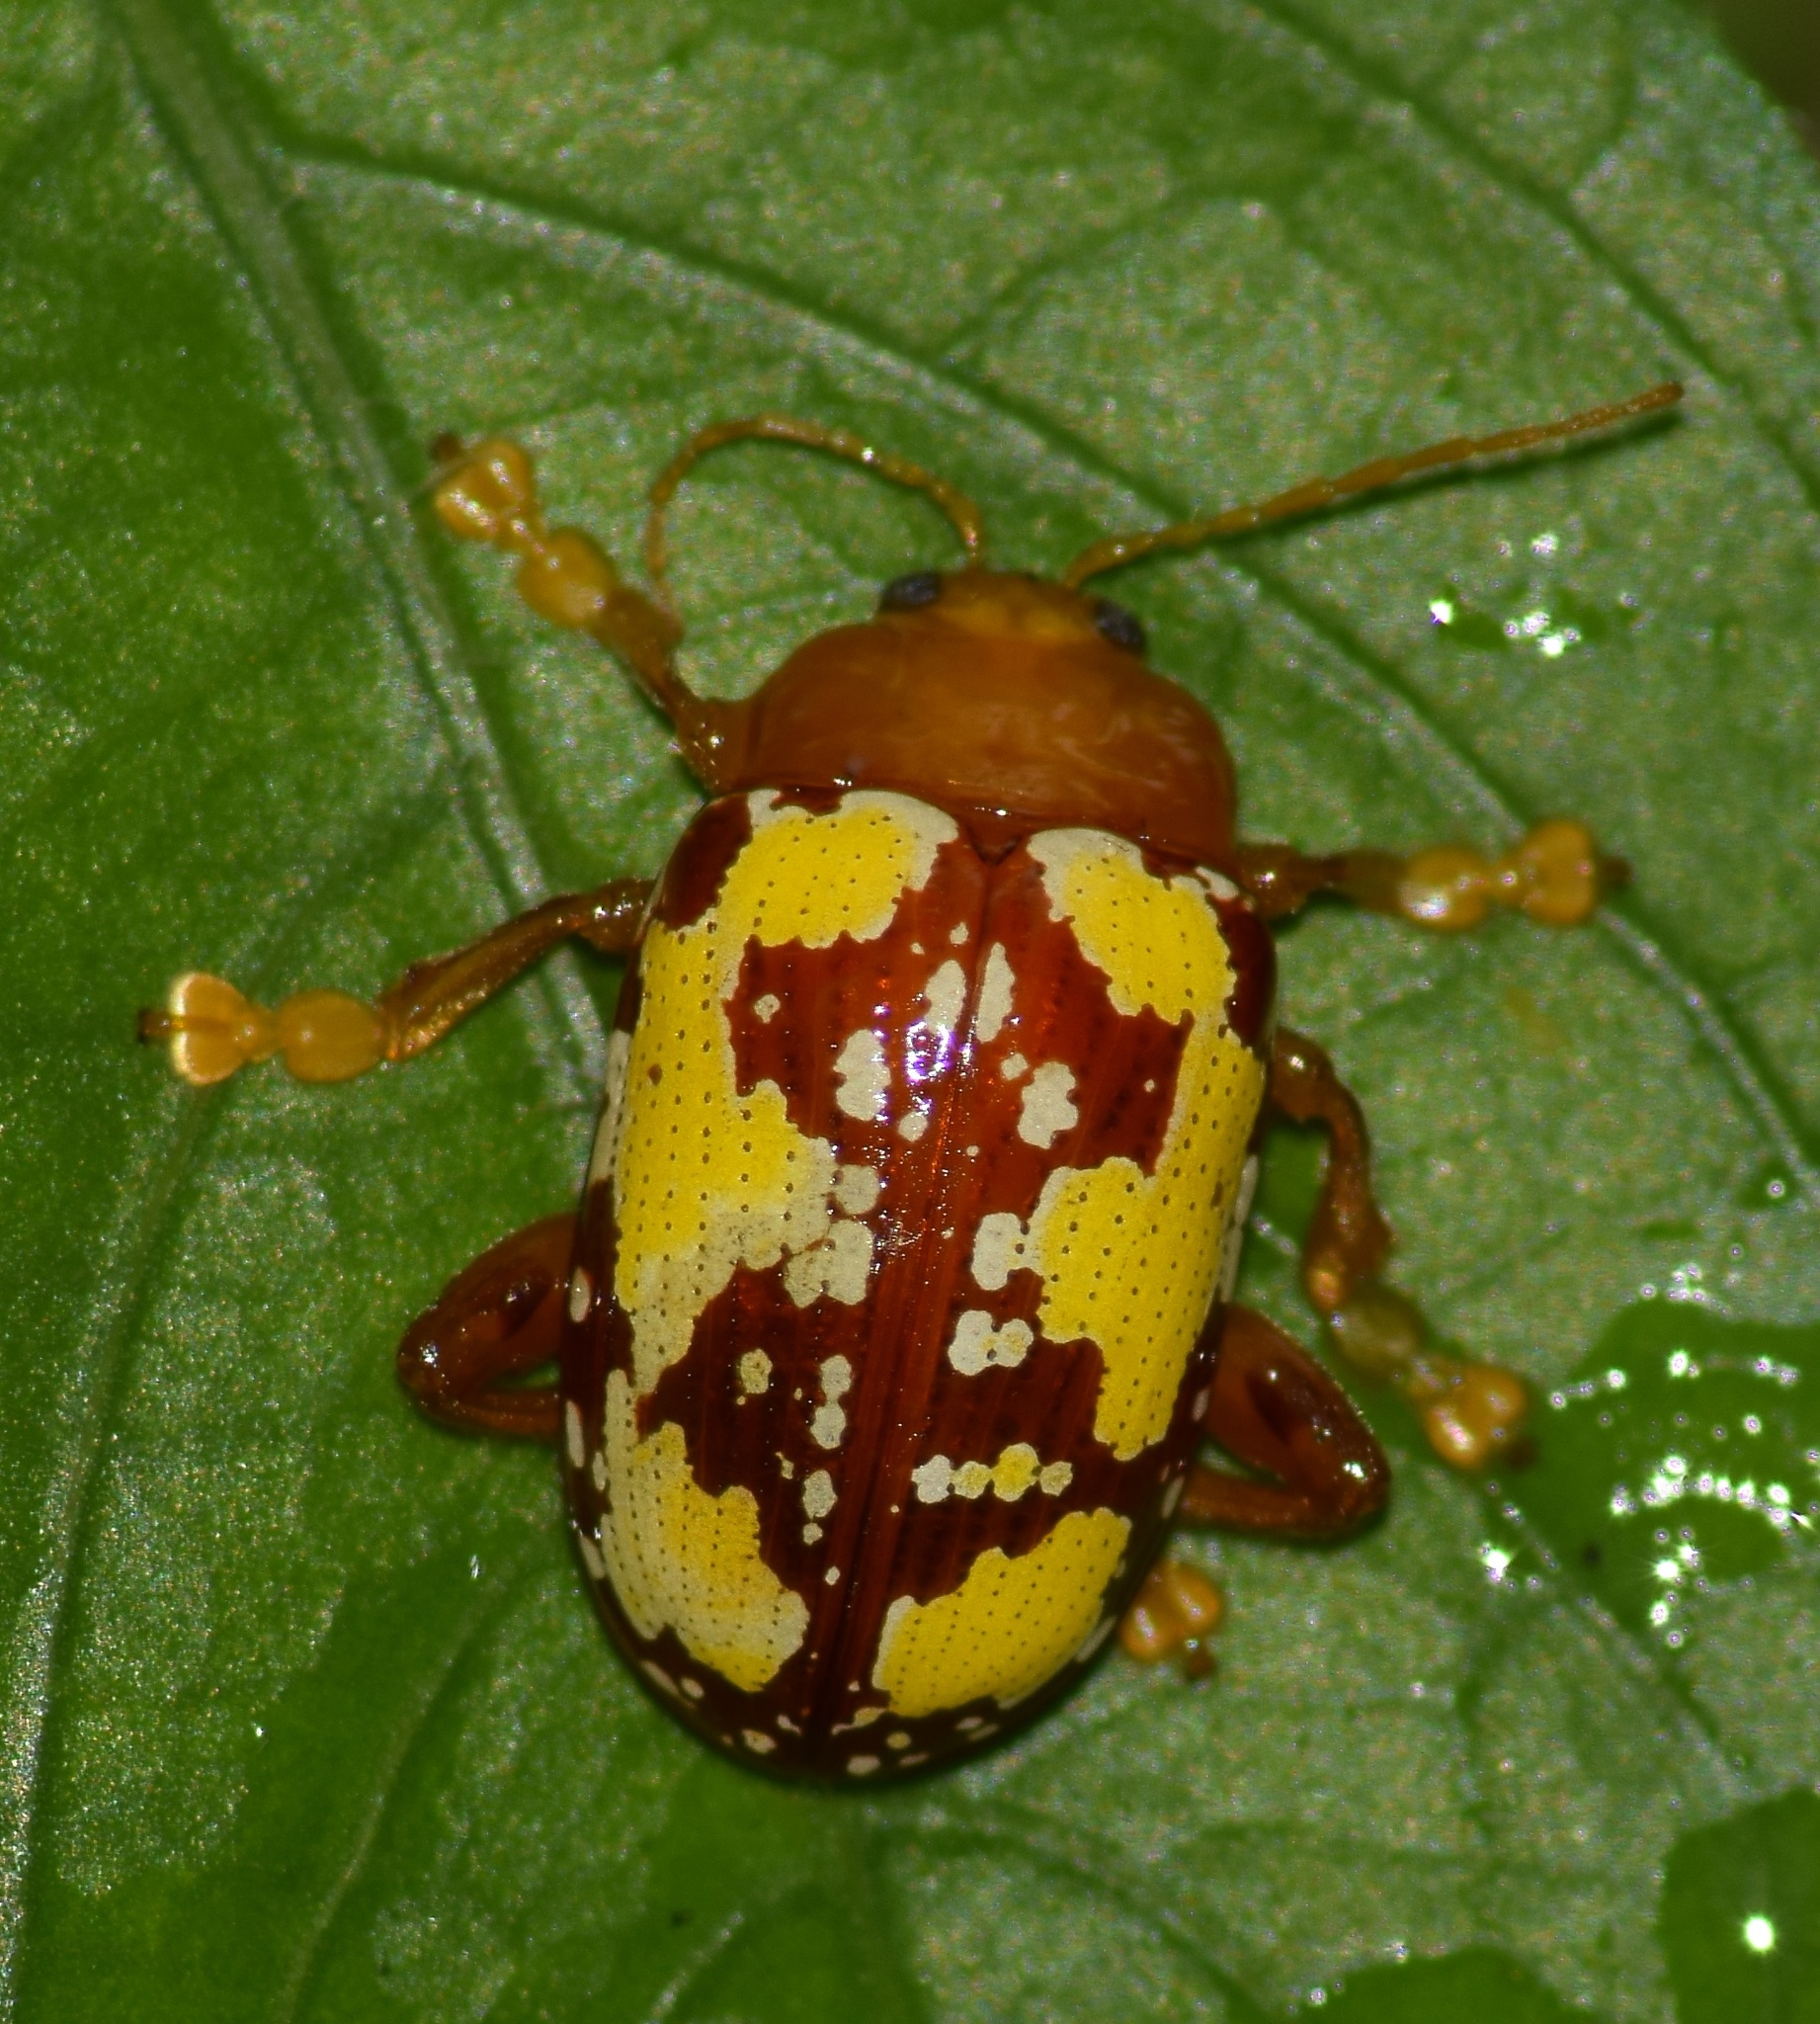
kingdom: Animalia
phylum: Arthropoda
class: Insecta
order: Coleoptera
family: Chrysomelidae
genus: Podontia
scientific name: Podontia
